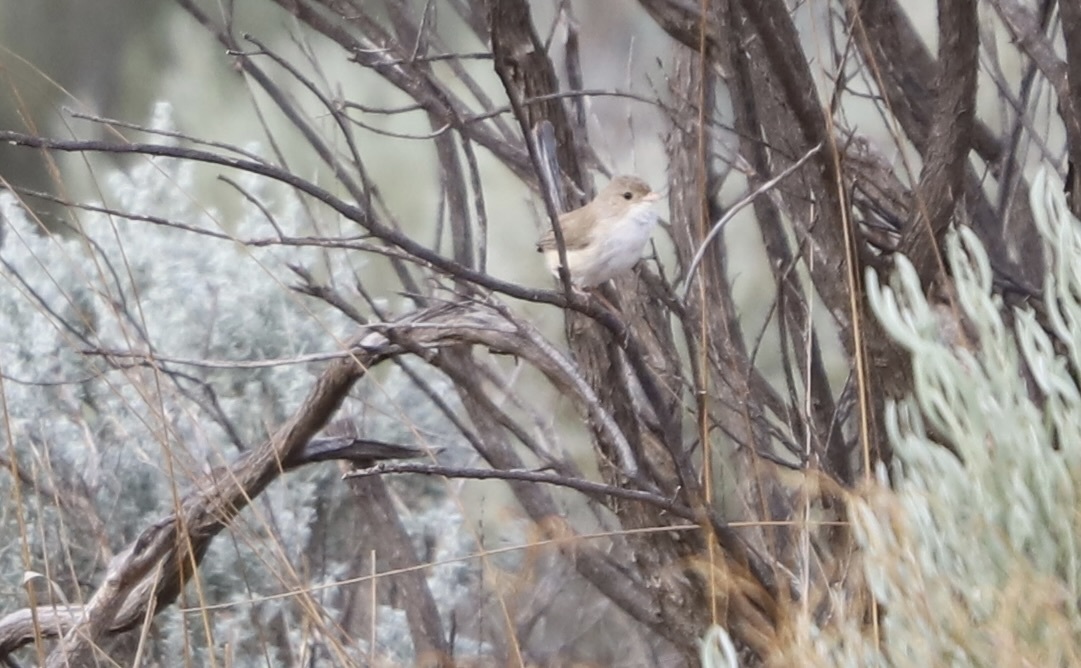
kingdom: Animalia
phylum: Chordata
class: Aves
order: Passeriformes
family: Maluridae
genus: Malurus
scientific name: Malurus leucopterus
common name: White-winged fairywren
